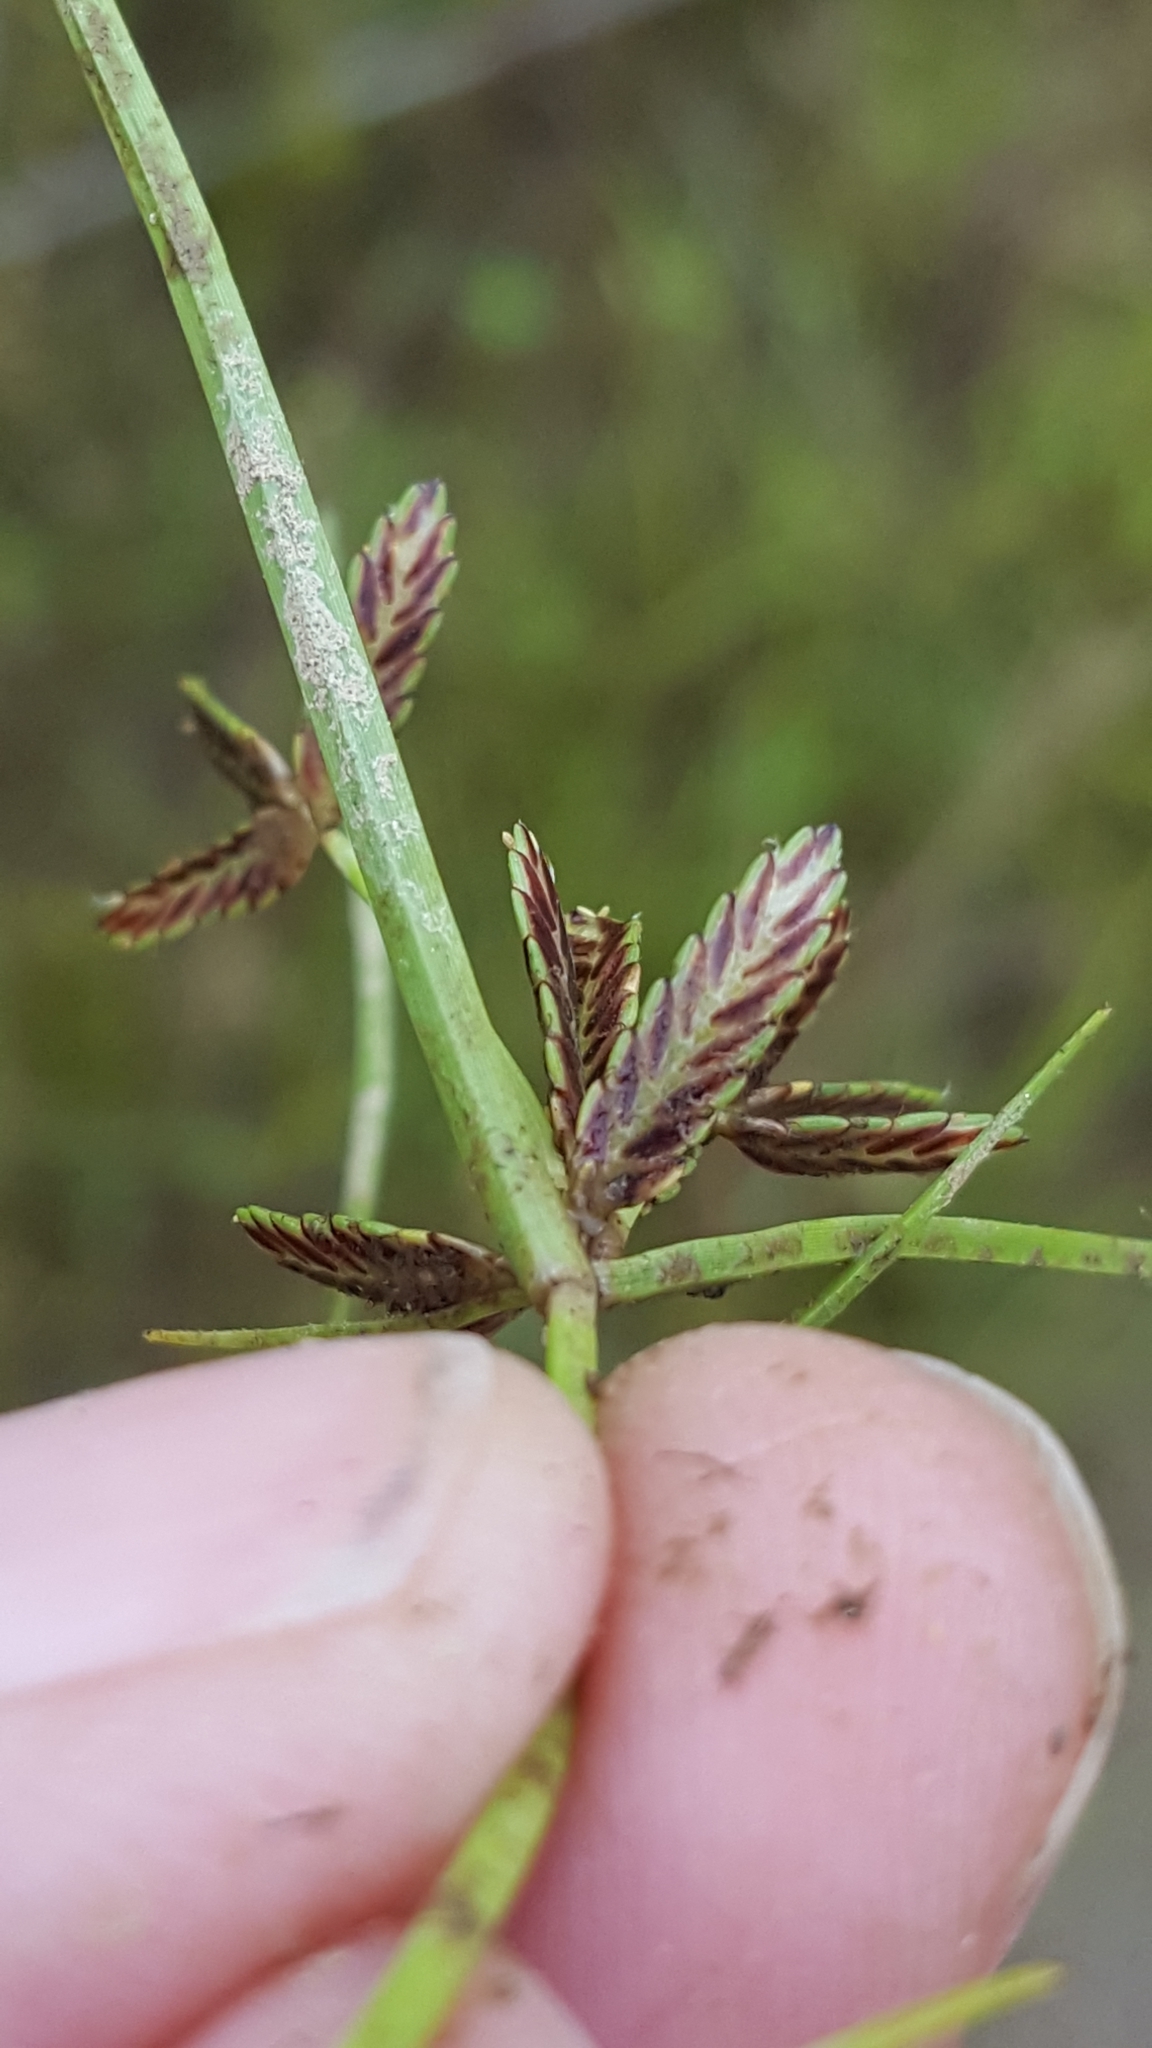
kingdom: Plantae
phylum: Tracheophyta
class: Liliopsida
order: Poales
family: Cyperaceae
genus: Cyperus
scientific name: Cyperus bipartitus
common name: Brook flatsedge
